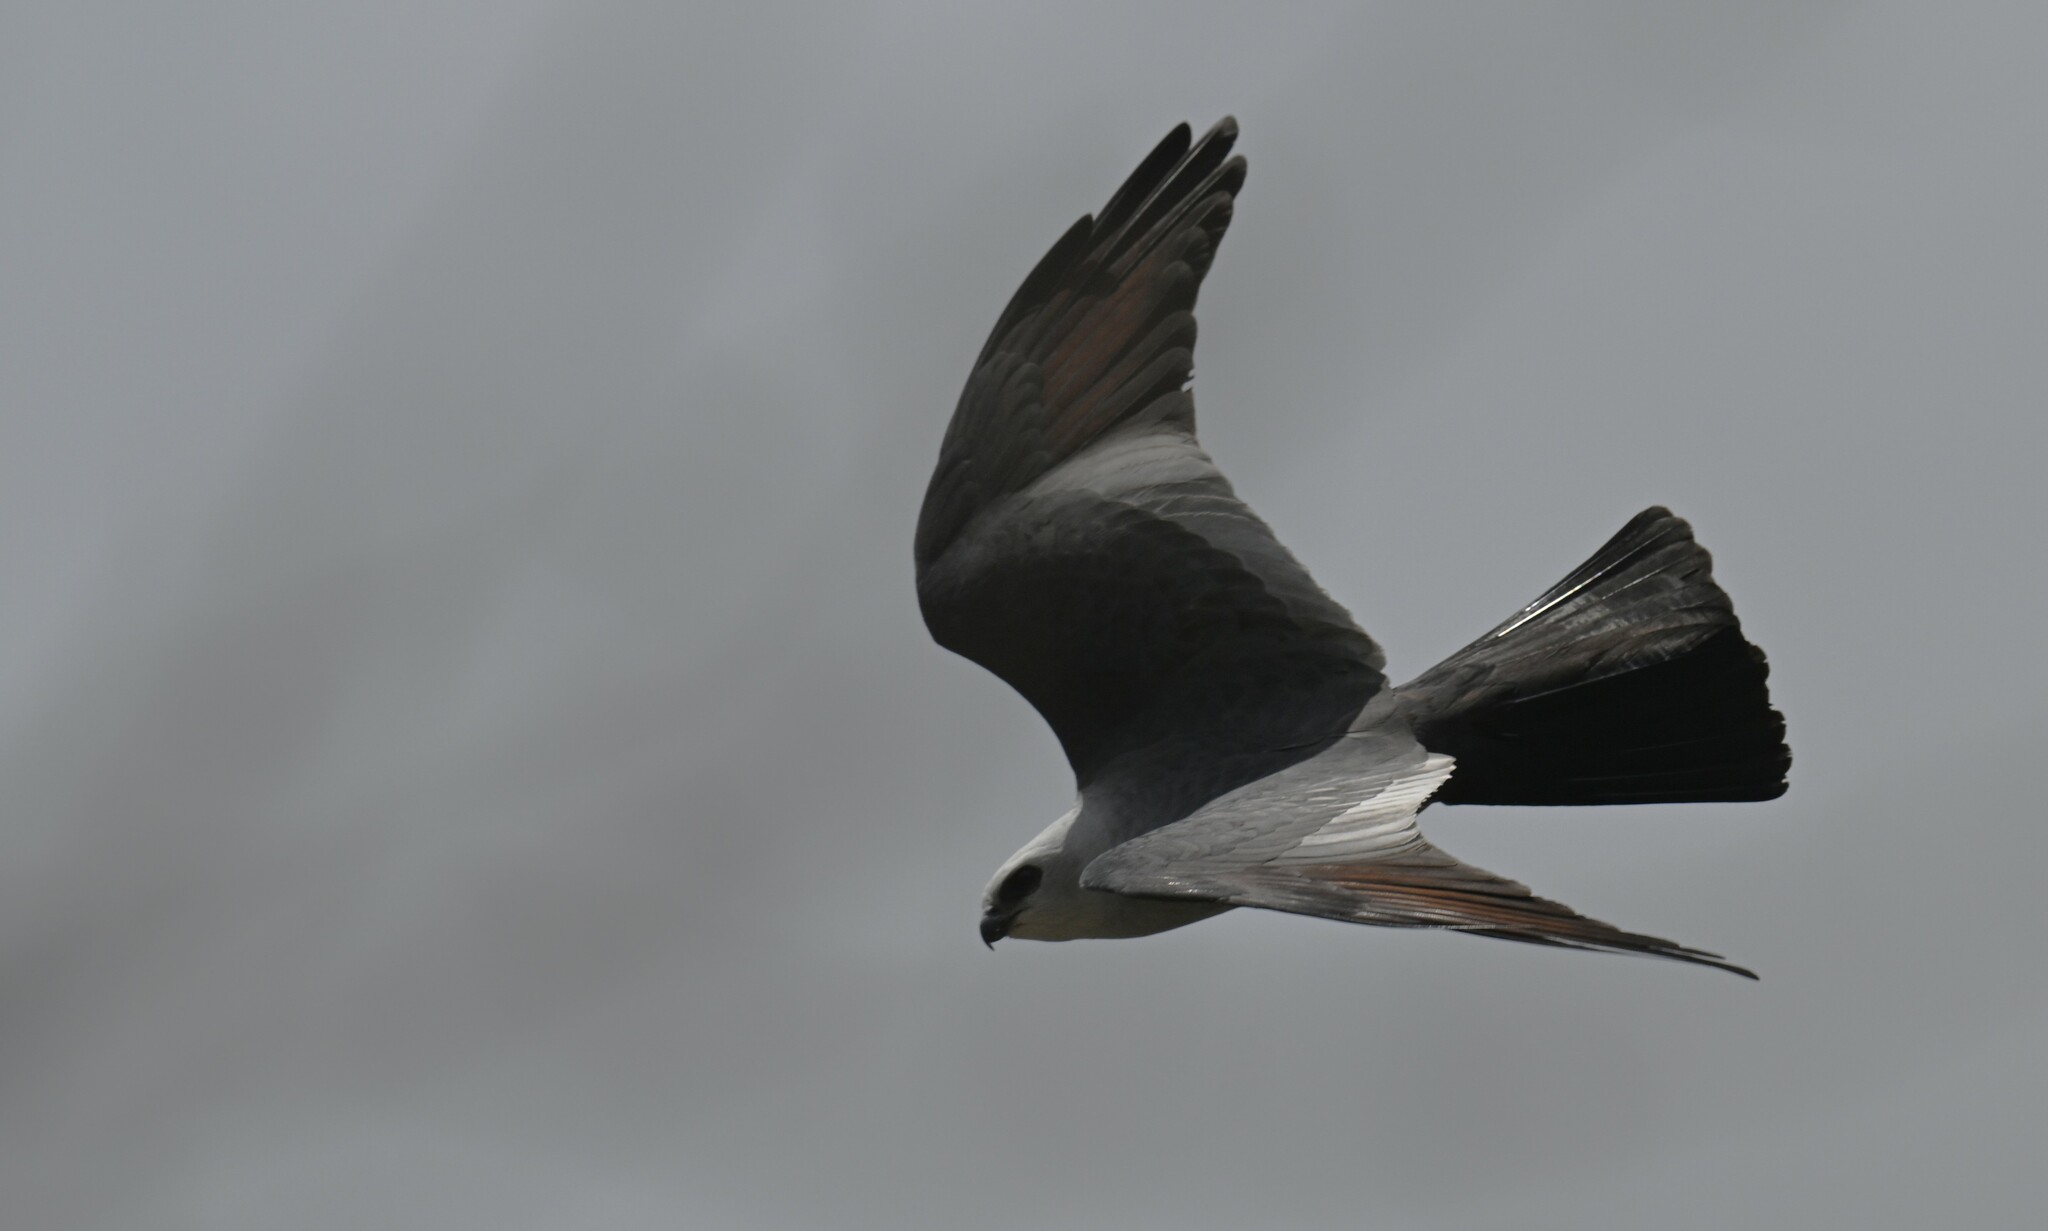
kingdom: Animalia
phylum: Chordata
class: Aves
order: Accipitriformes
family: Accipitridae
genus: Ictinia
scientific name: Ictinia mississippiensis
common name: Mississippi kite
